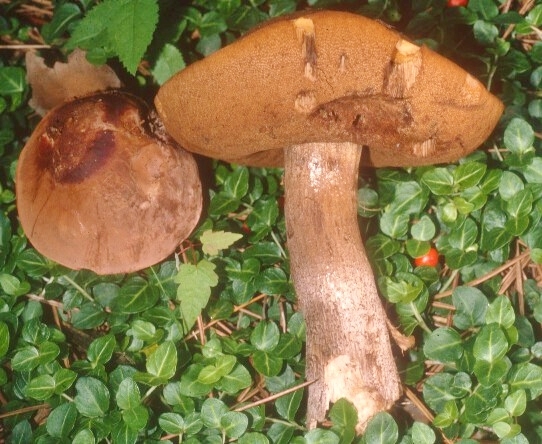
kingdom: Fungi
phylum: Basidiomycota
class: Agaricomycetes
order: Boletales
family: Boletaceae
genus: Sutorius
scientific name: Sutorius eximius
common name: Lilac-brown bolete
